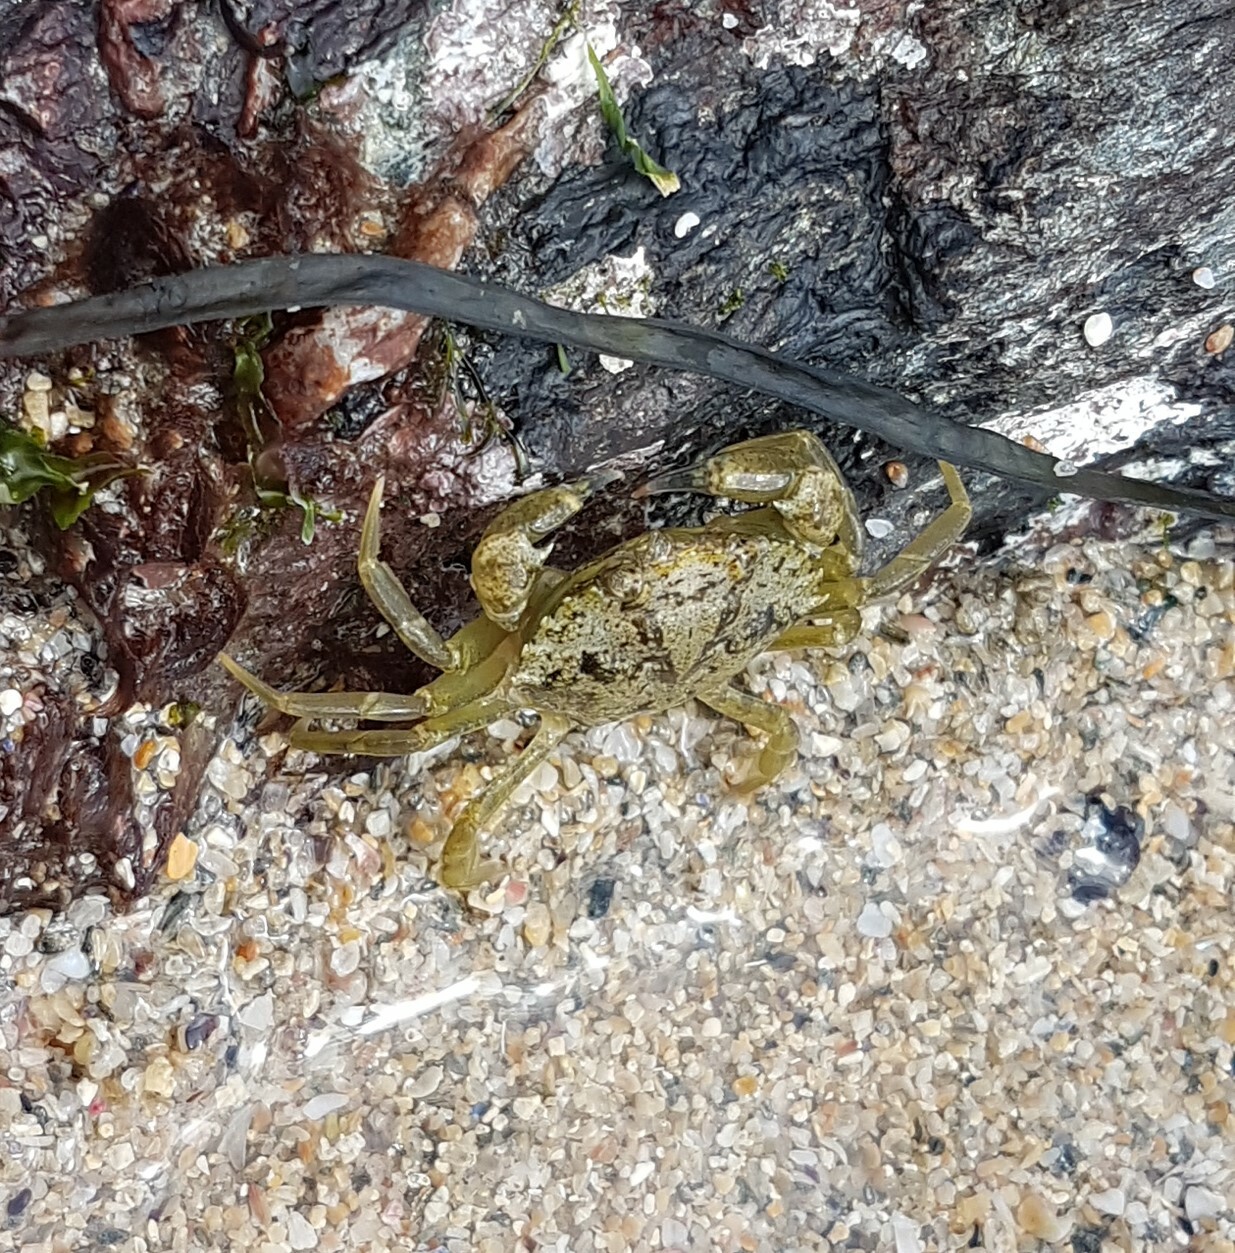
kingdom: Animalia
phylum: Arthropoda
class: Malacostraca
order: Decapoda
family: Carcinidae
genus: Carcinus
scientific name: Carcinus maenas
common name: European green crab
